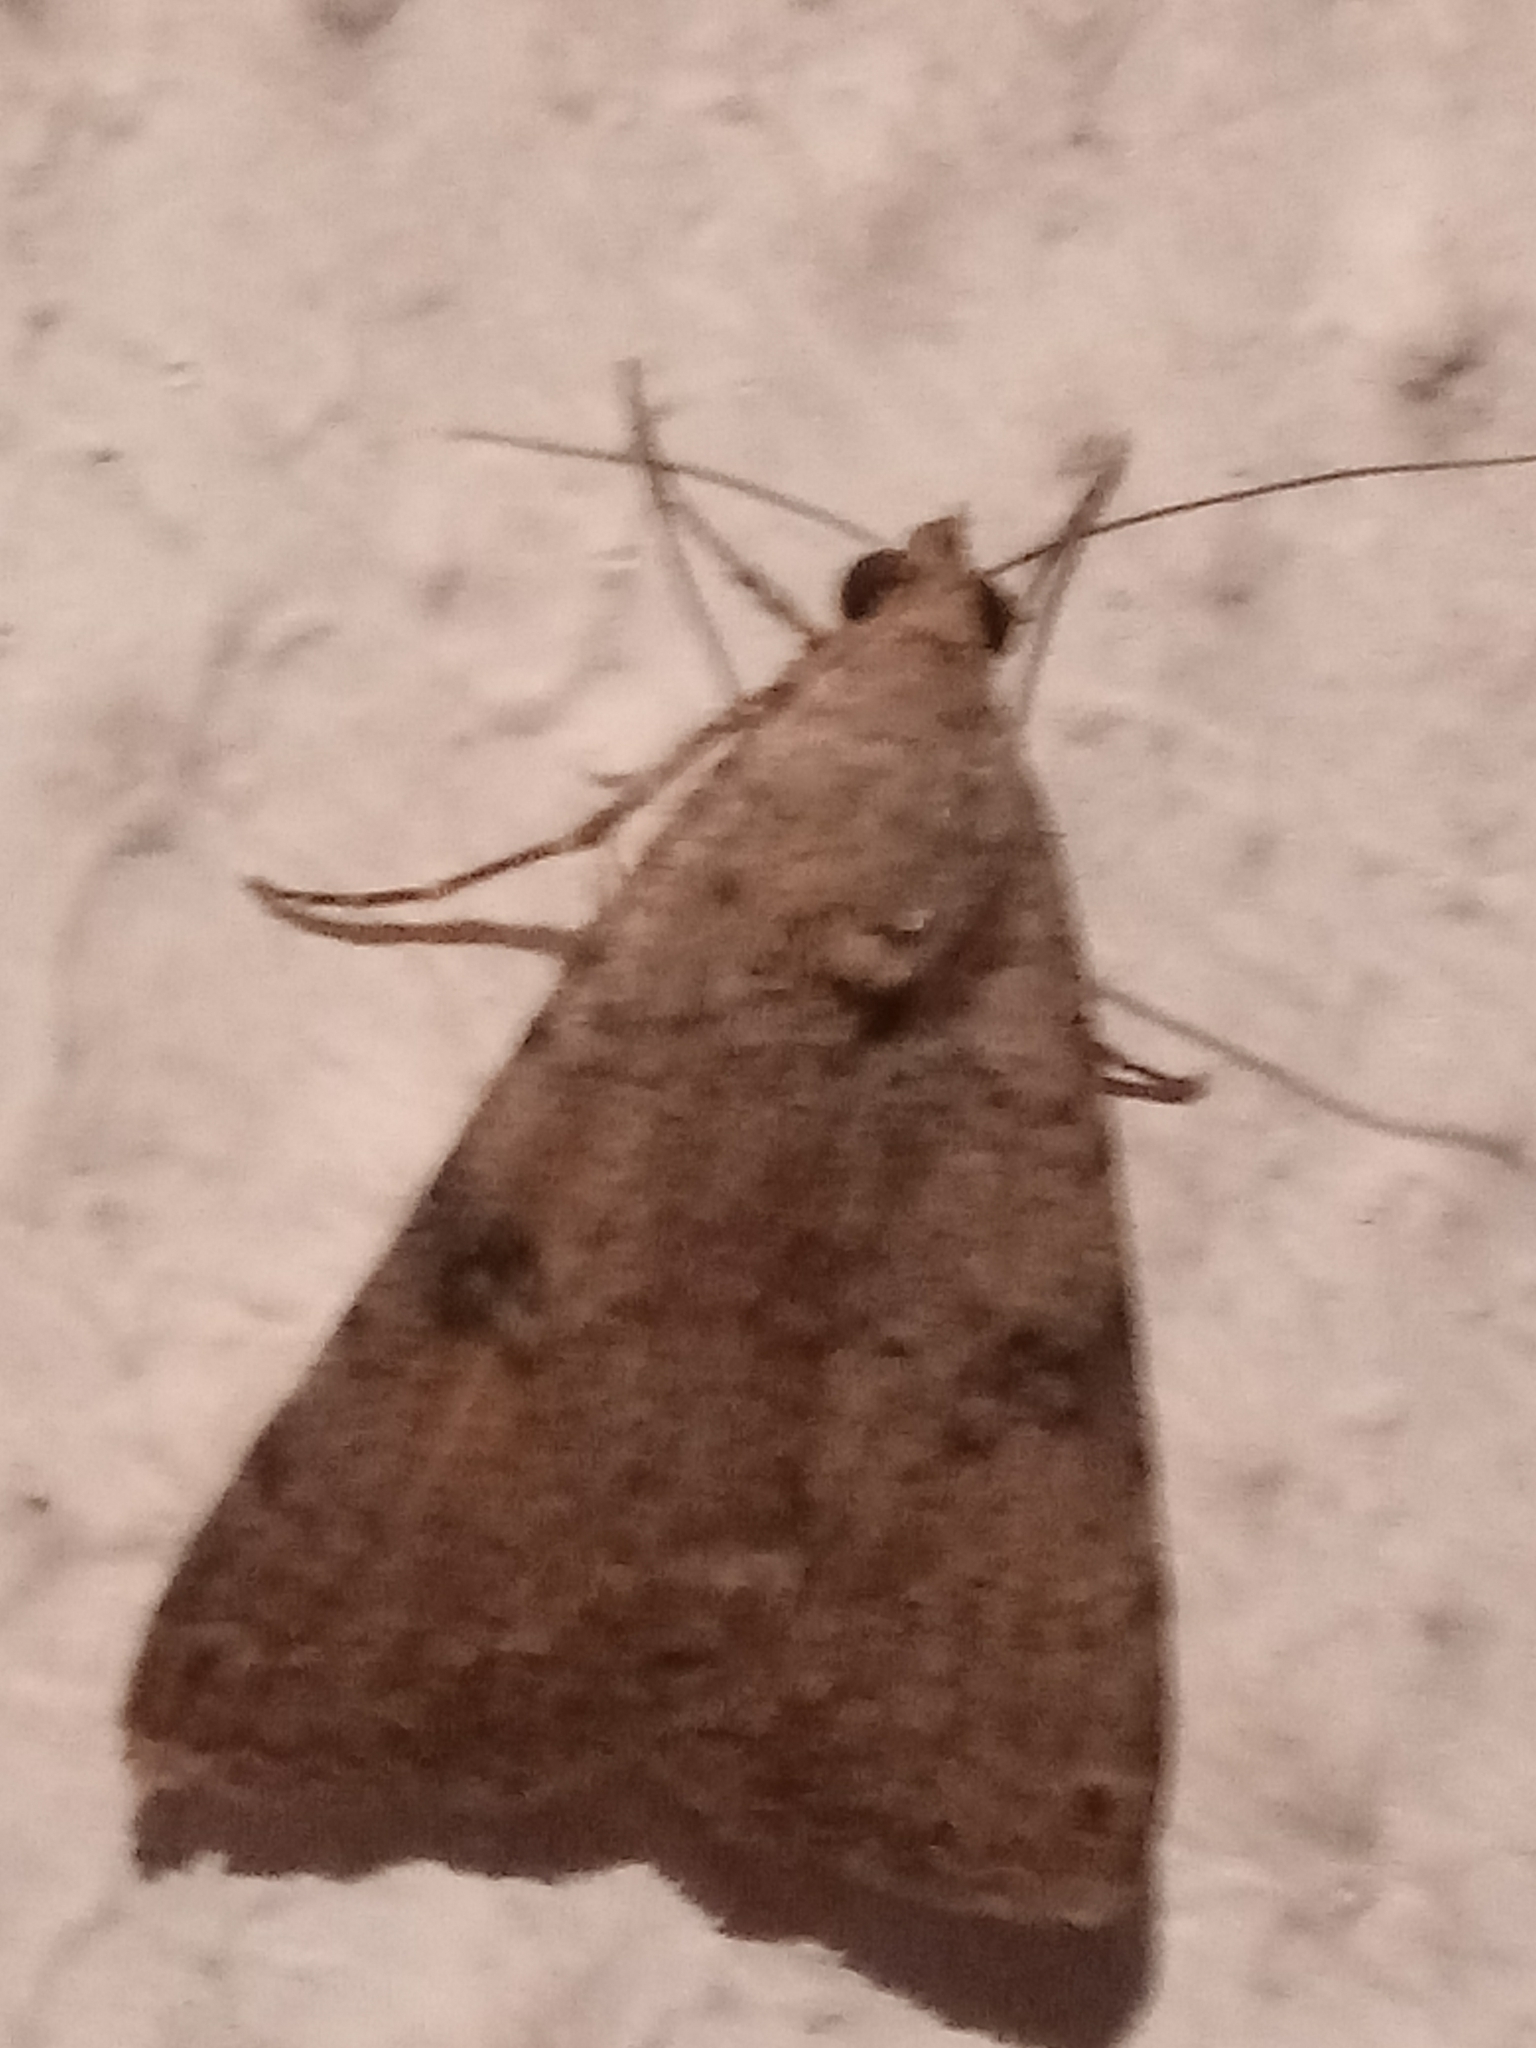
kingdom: Animalia
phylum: Arthropoda
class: Insecta
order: Lepidoptera
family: Erebidae
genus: Bulia
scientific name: Bulia deducta
